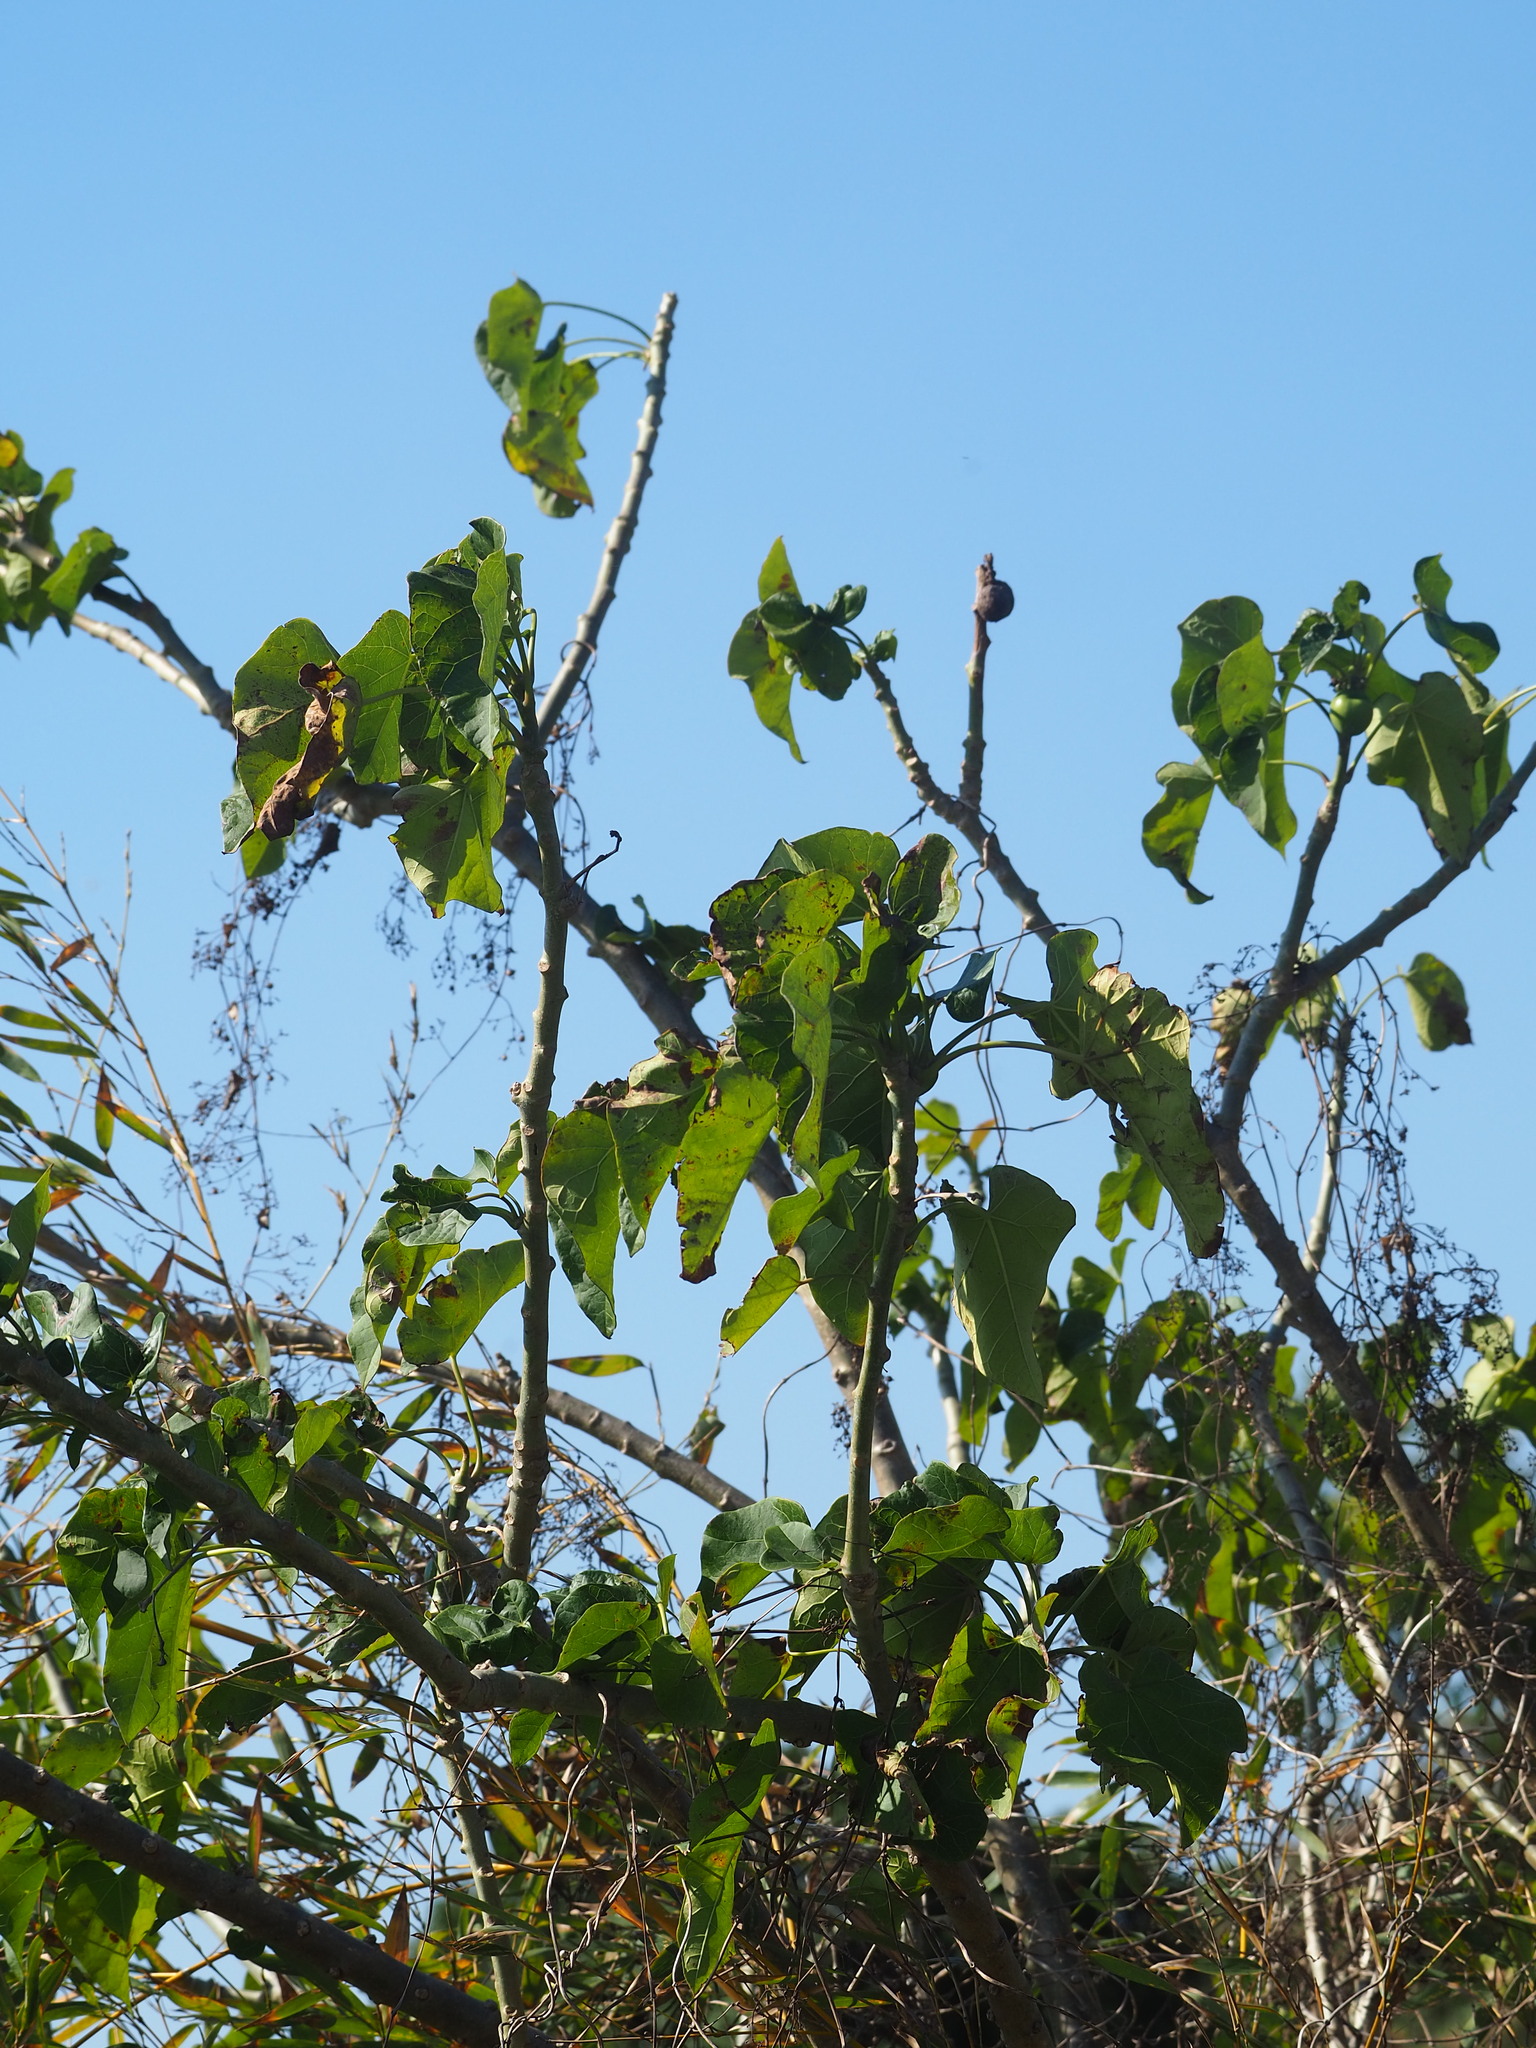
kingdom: Plantae
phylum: Tracheophyta
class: Magnoliopsida
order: Malpighiales
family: Euphorbiaceae
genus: Jatropha
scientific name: Jatropha curcas
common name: Barbados nut
